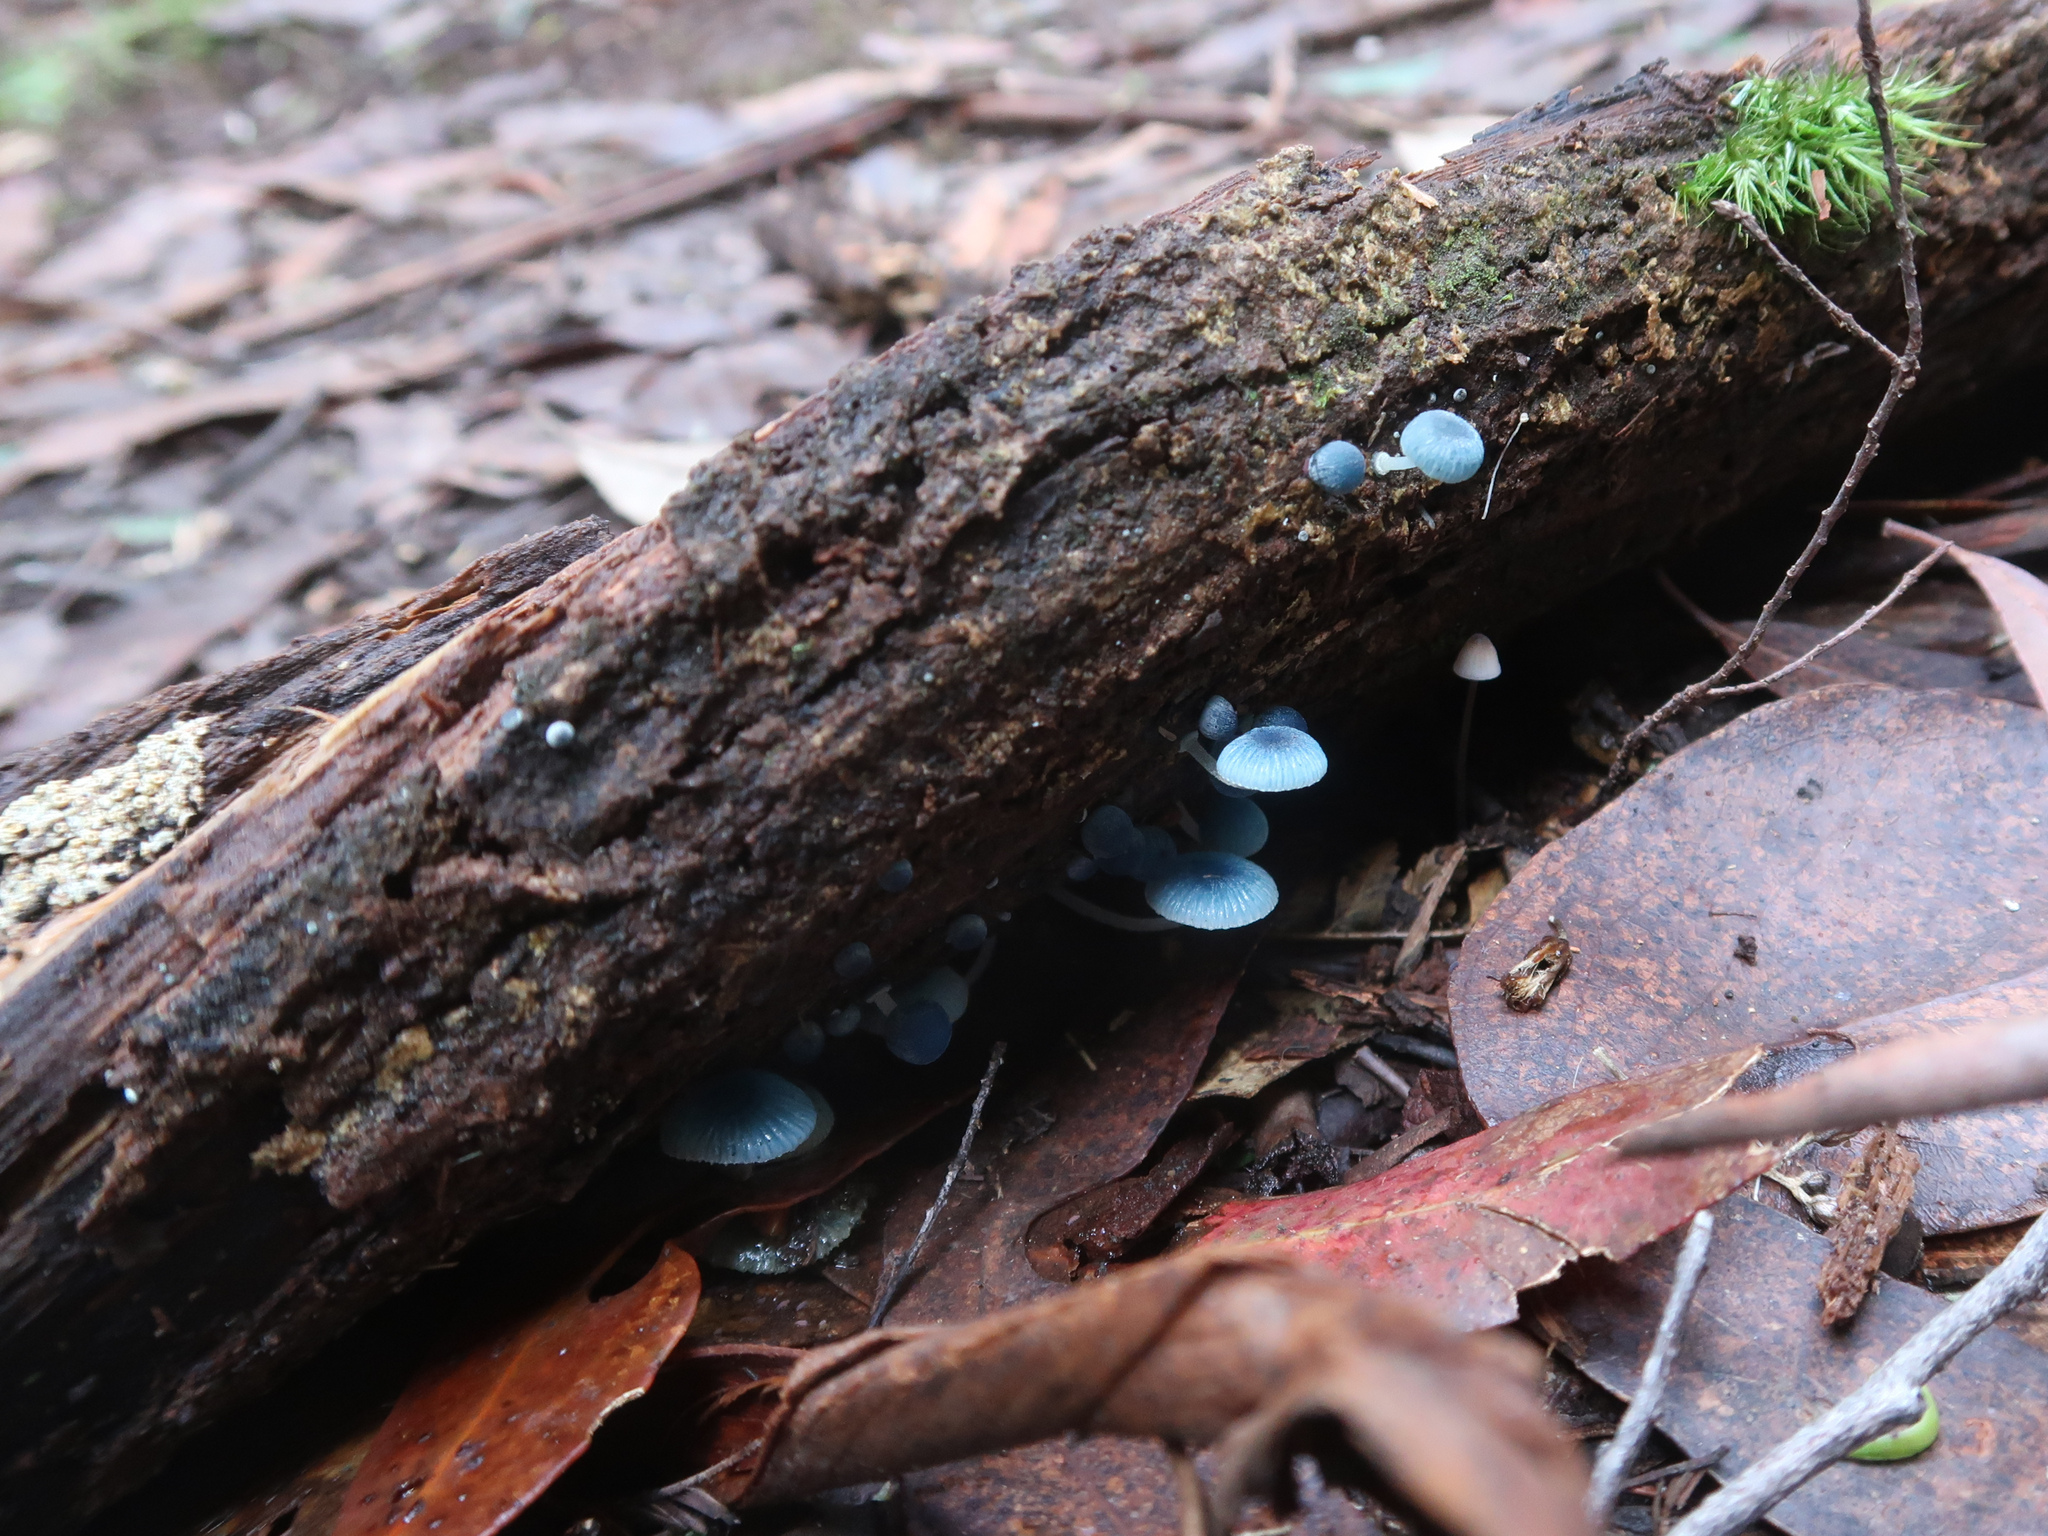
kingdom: Fungi
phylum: Basidiomycota
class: Agaricomycetes
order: Agaricales
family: Mycenaceae
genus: Mycena
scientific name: Mycena interrupta
